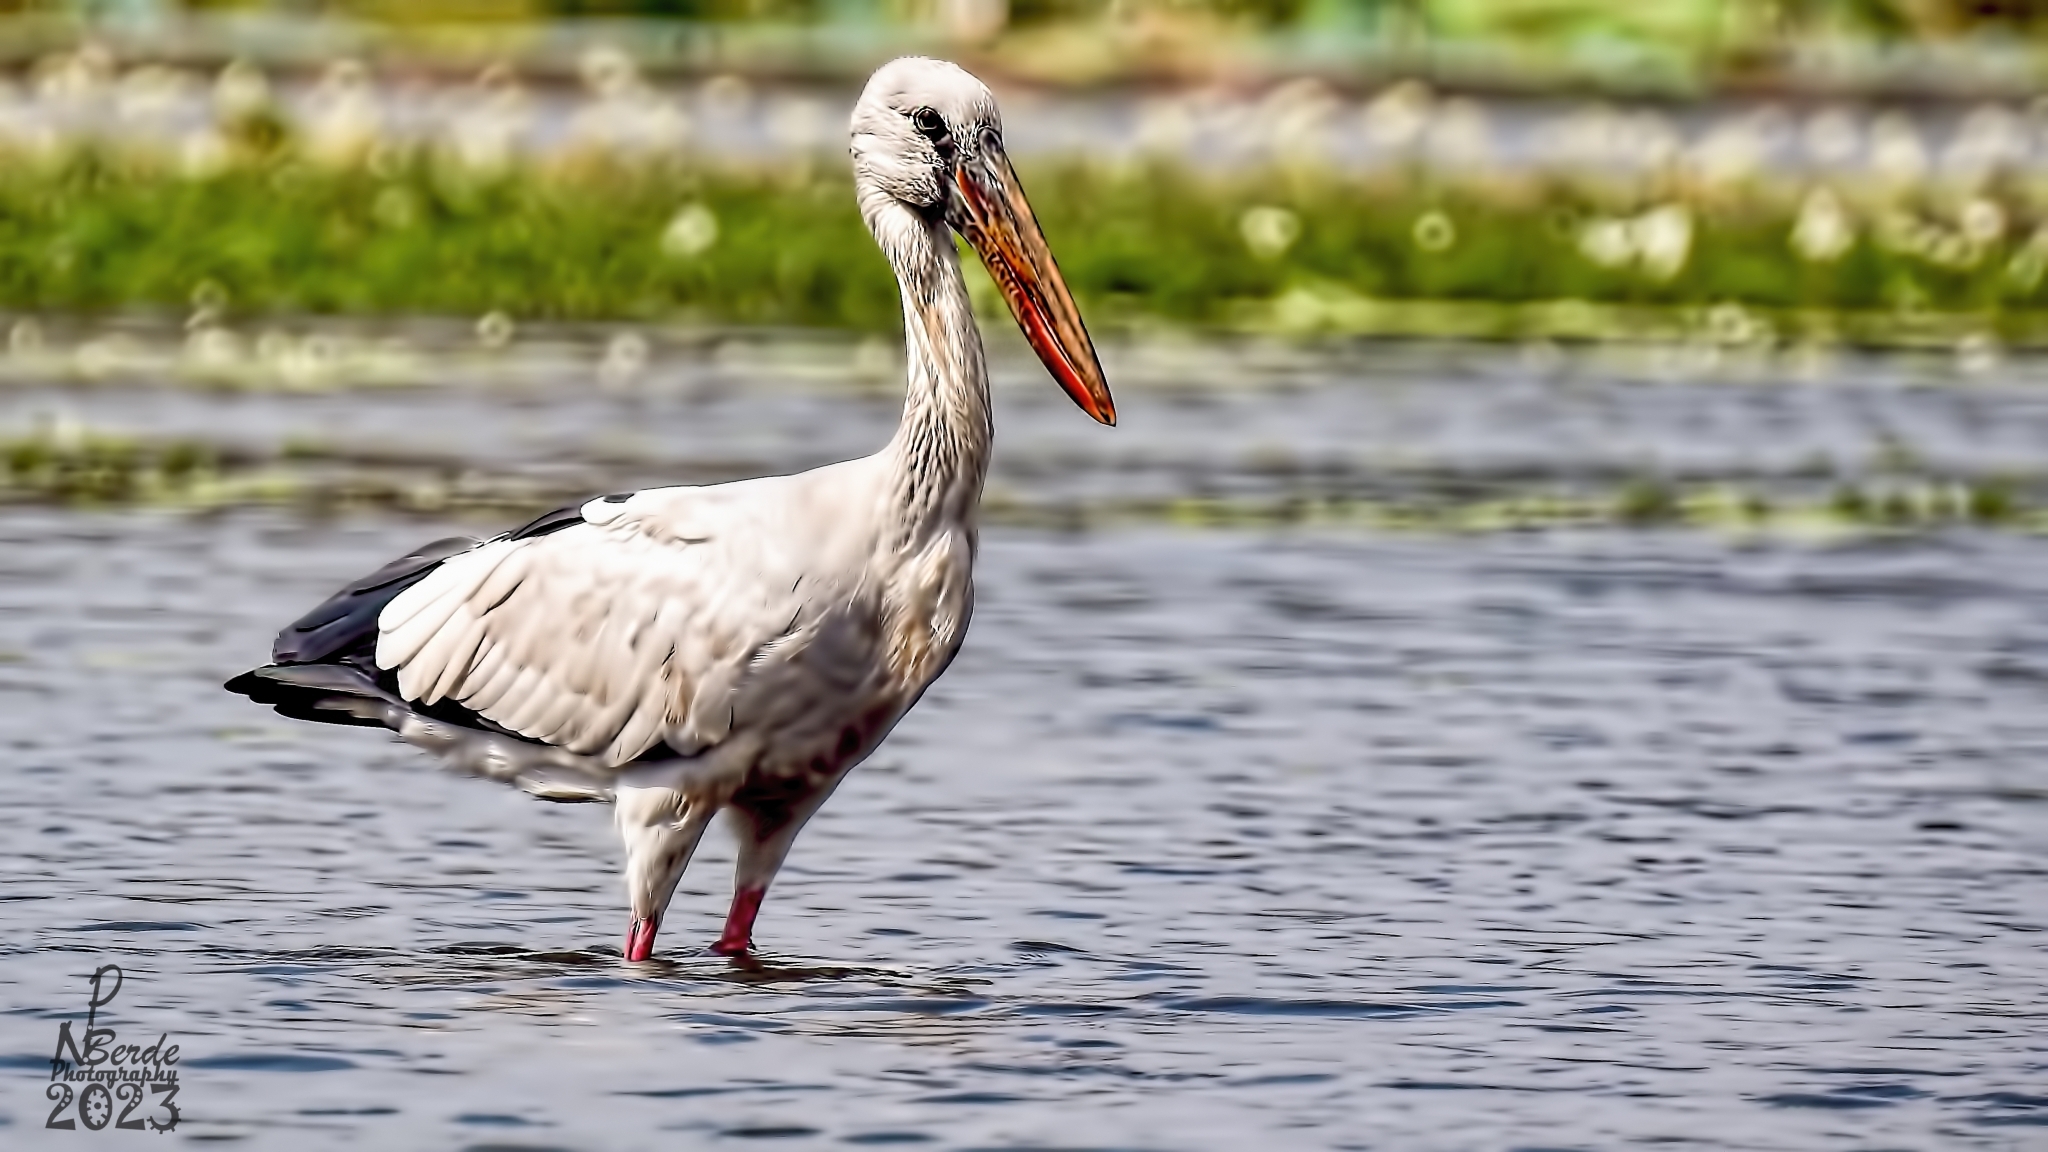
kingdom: Animalia
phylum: Chordata
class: Aves
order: Ciconiiformes
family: Ciconiidae
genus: Anastomus
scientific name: Anastomus oscitans
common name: Asian openbill
